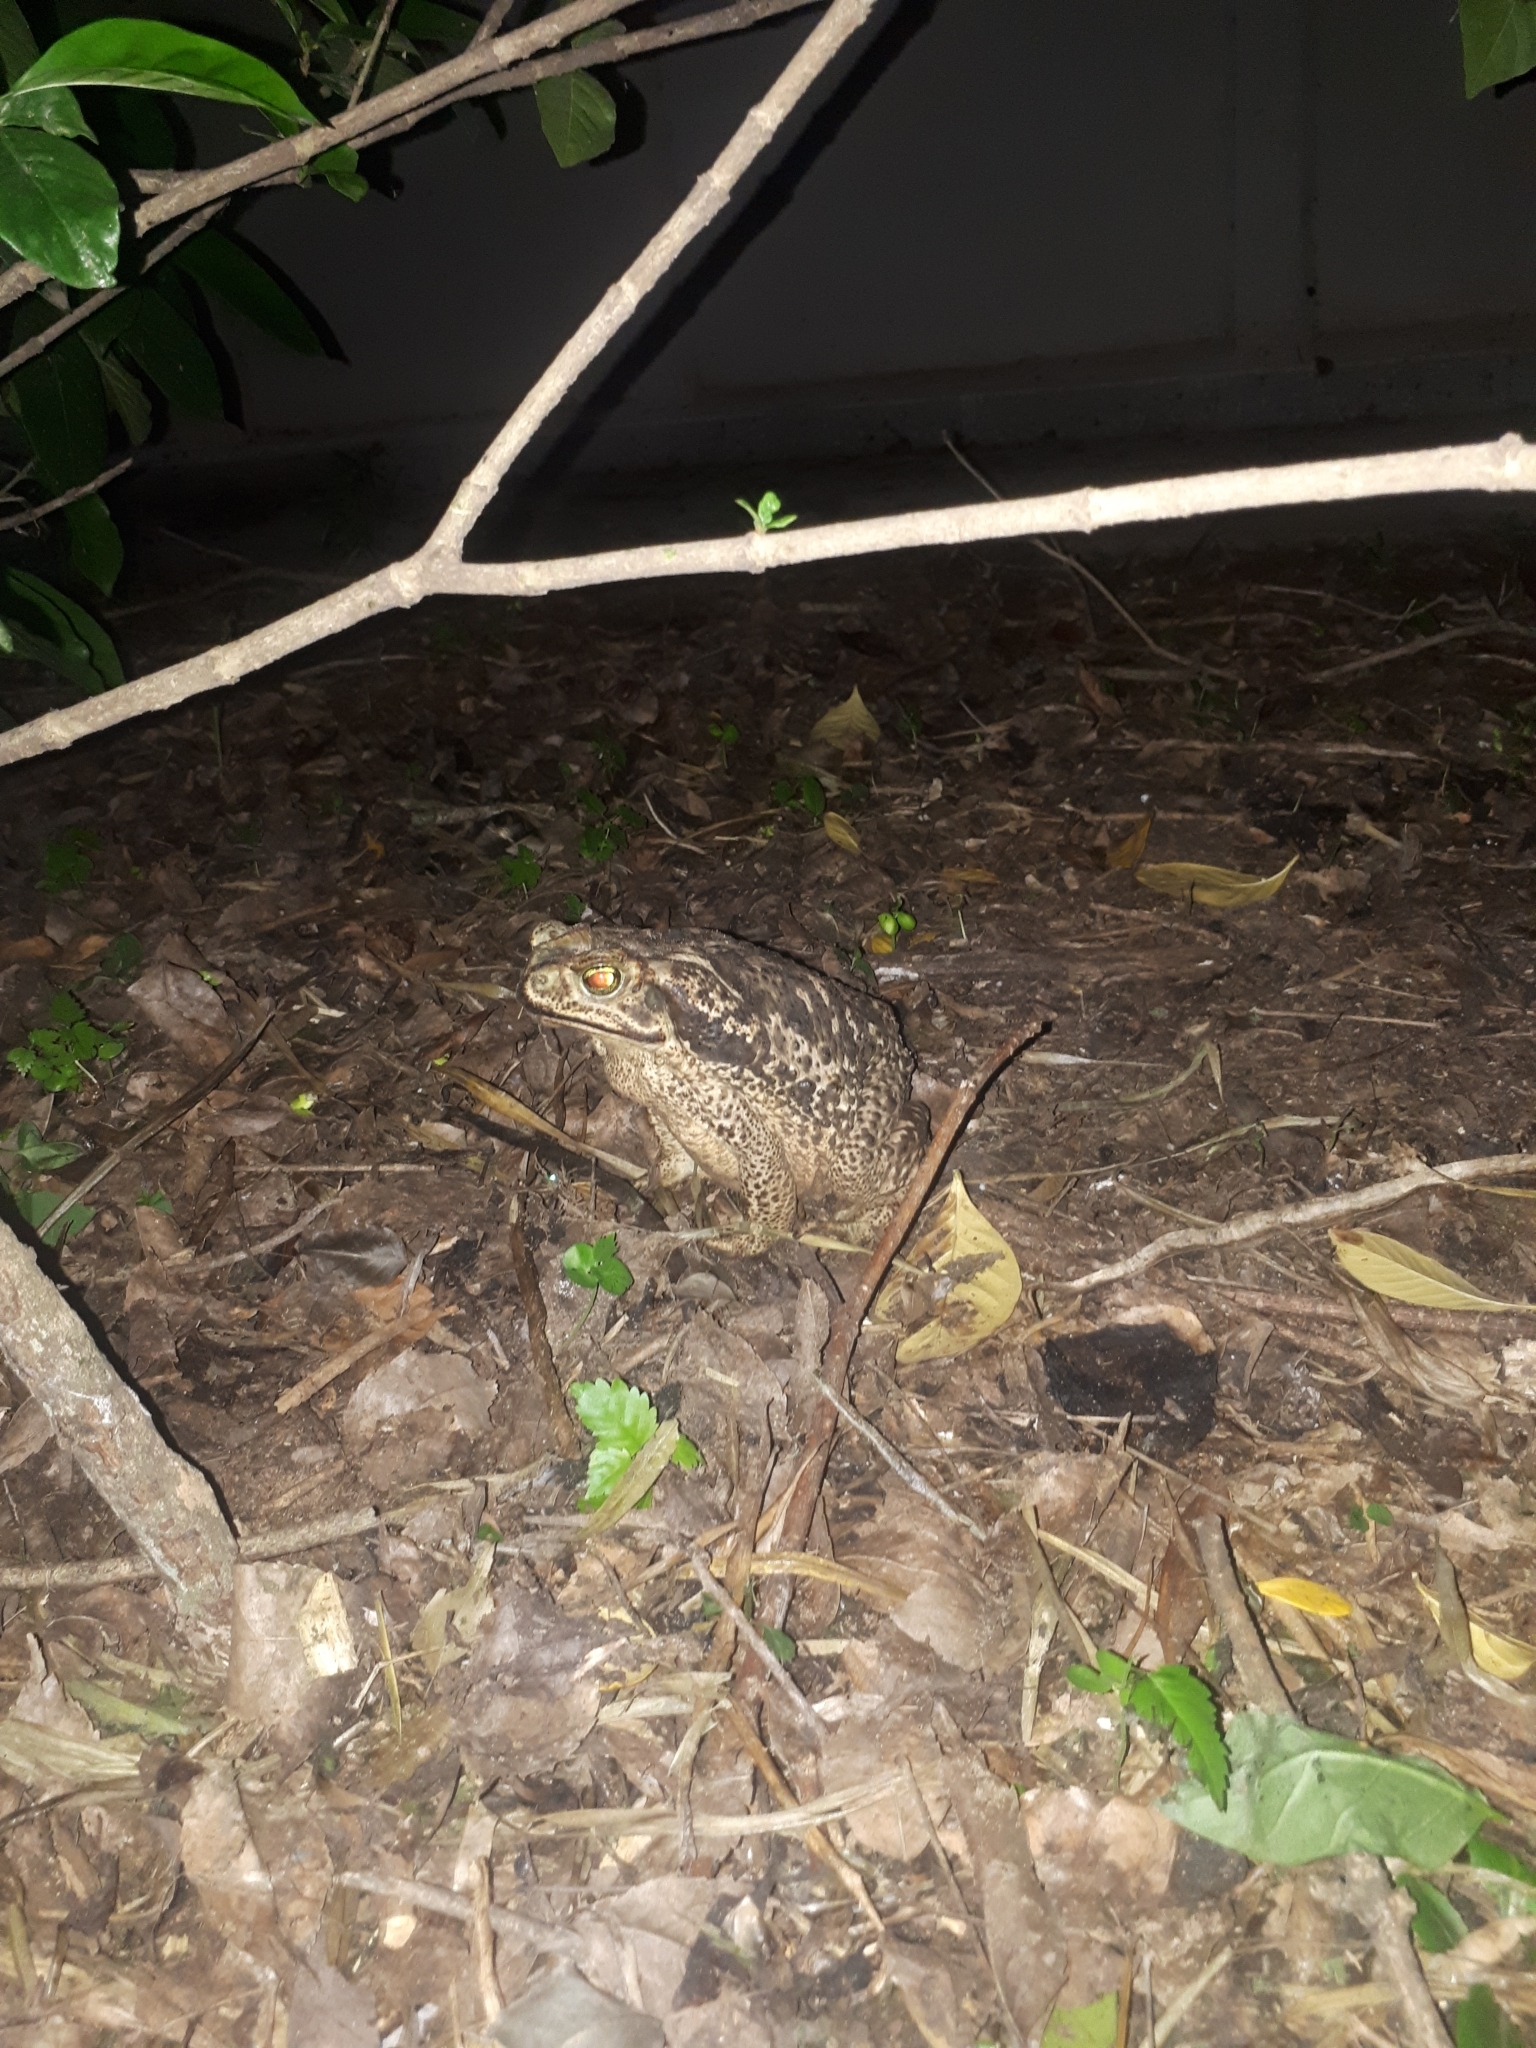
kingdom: Animalia
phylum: Chordata
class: Amphibia
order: Anura
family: Bufonidae
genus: Rhinella
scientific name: Rhinella diptycha
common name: Cope's toad
